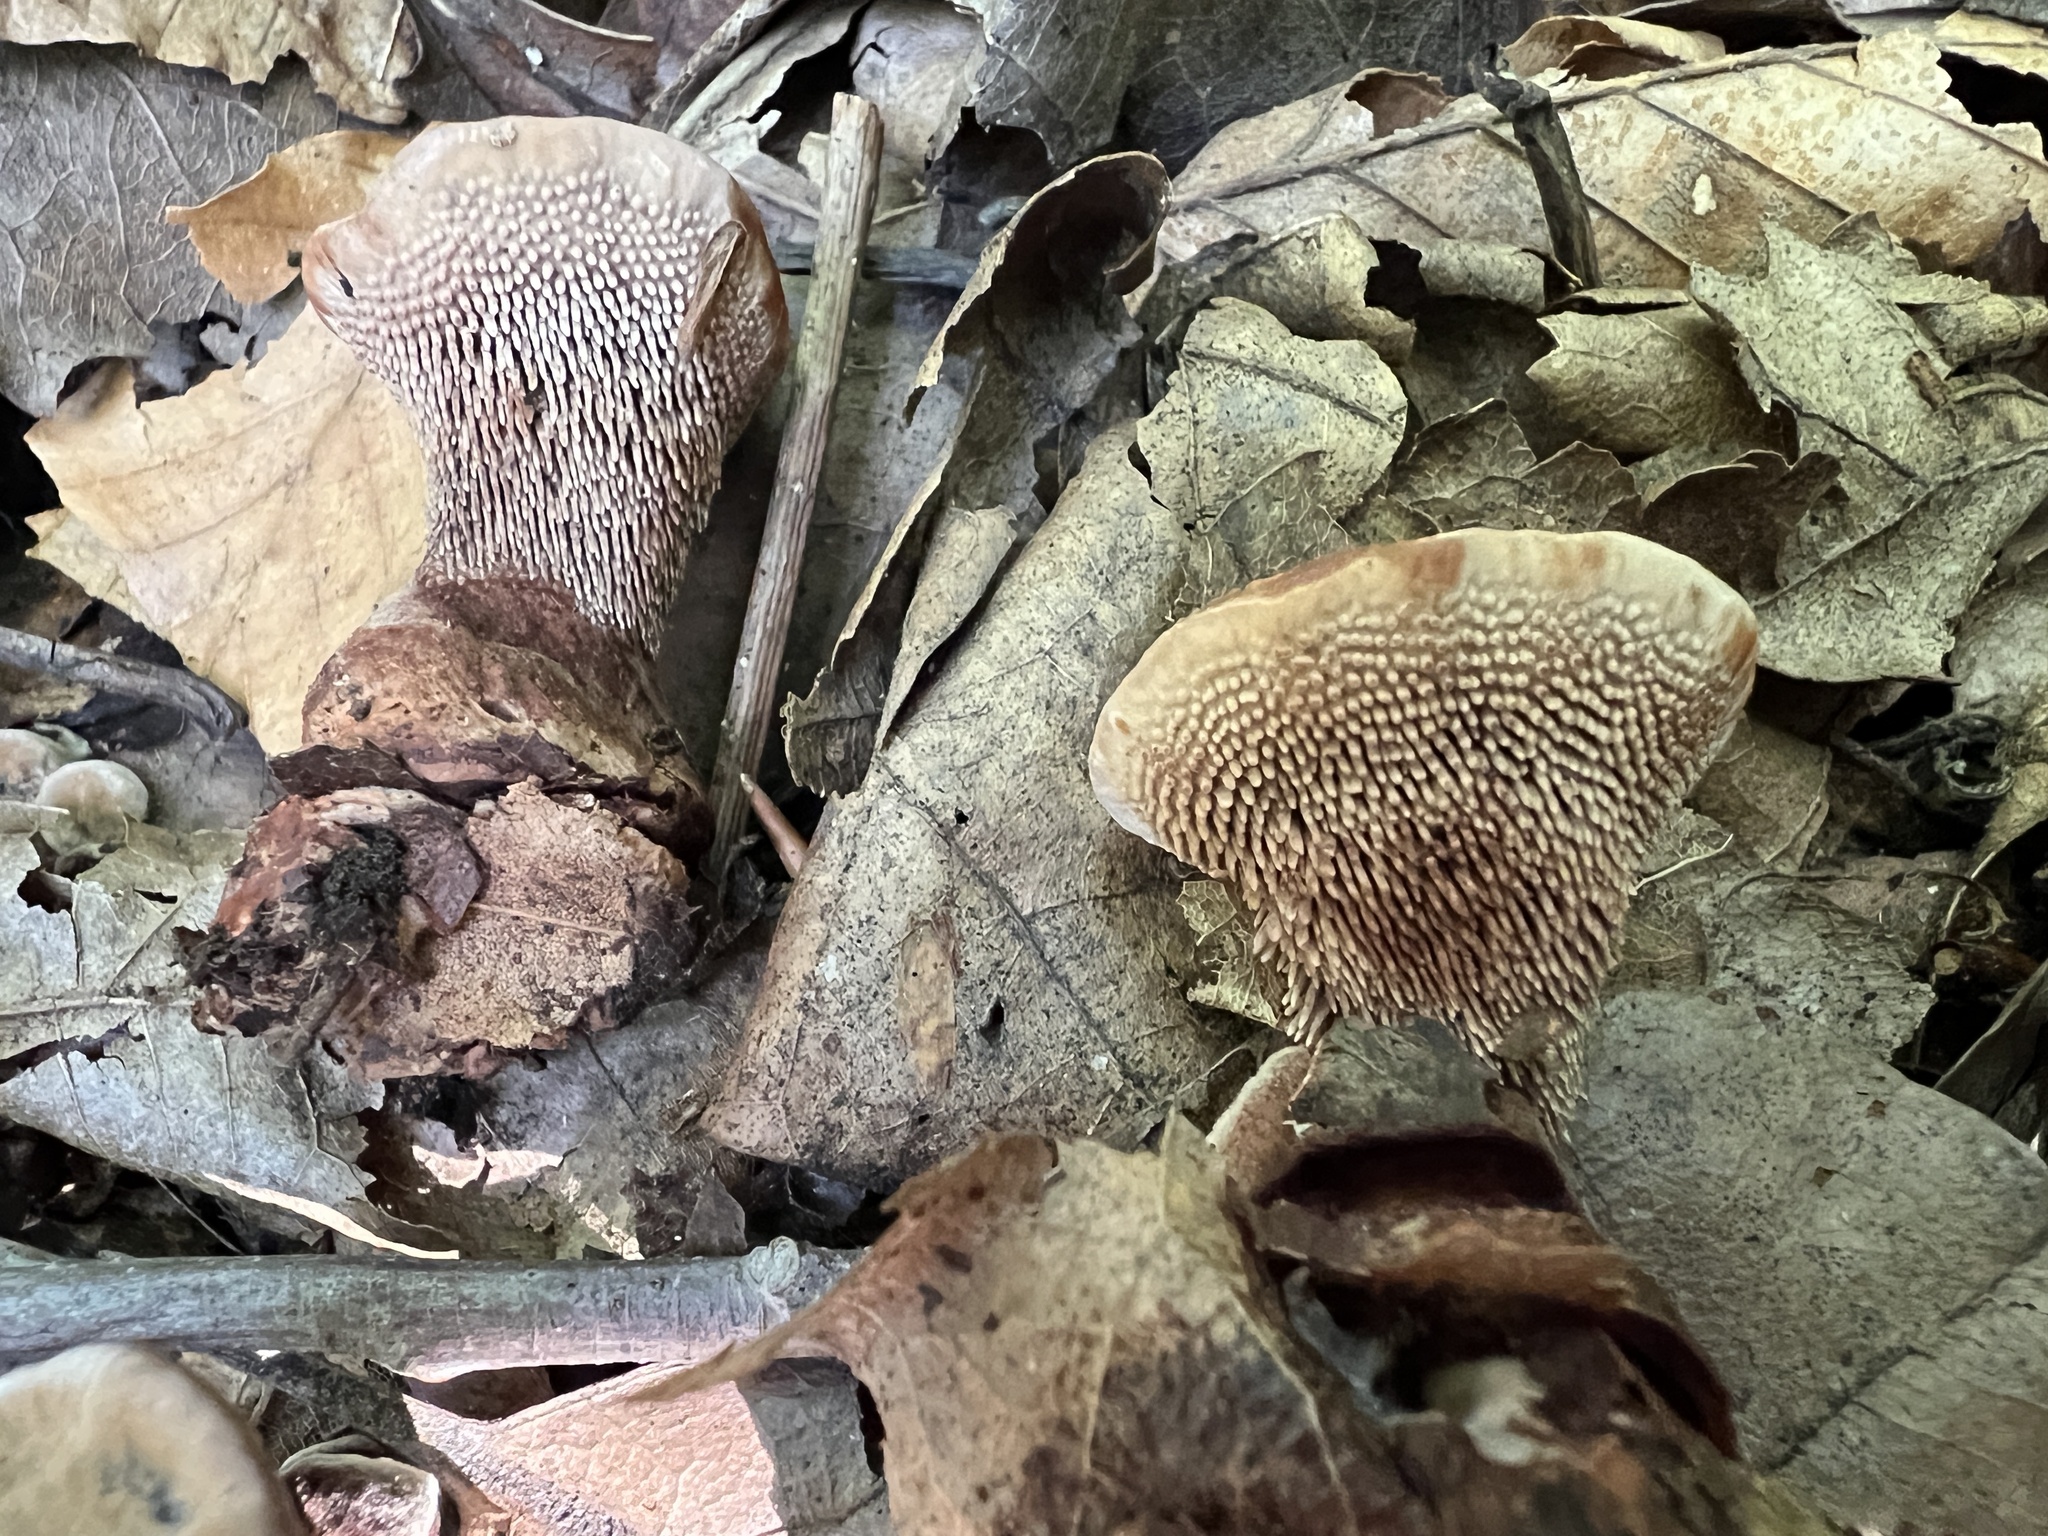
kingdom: Fungi
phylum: Basidiomycota
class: Agaricomycetes
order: Thelephorales
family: Bankeraceae
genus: Hydnellum
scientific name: Hydnellum spongiosipes
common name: Velvet tooth
